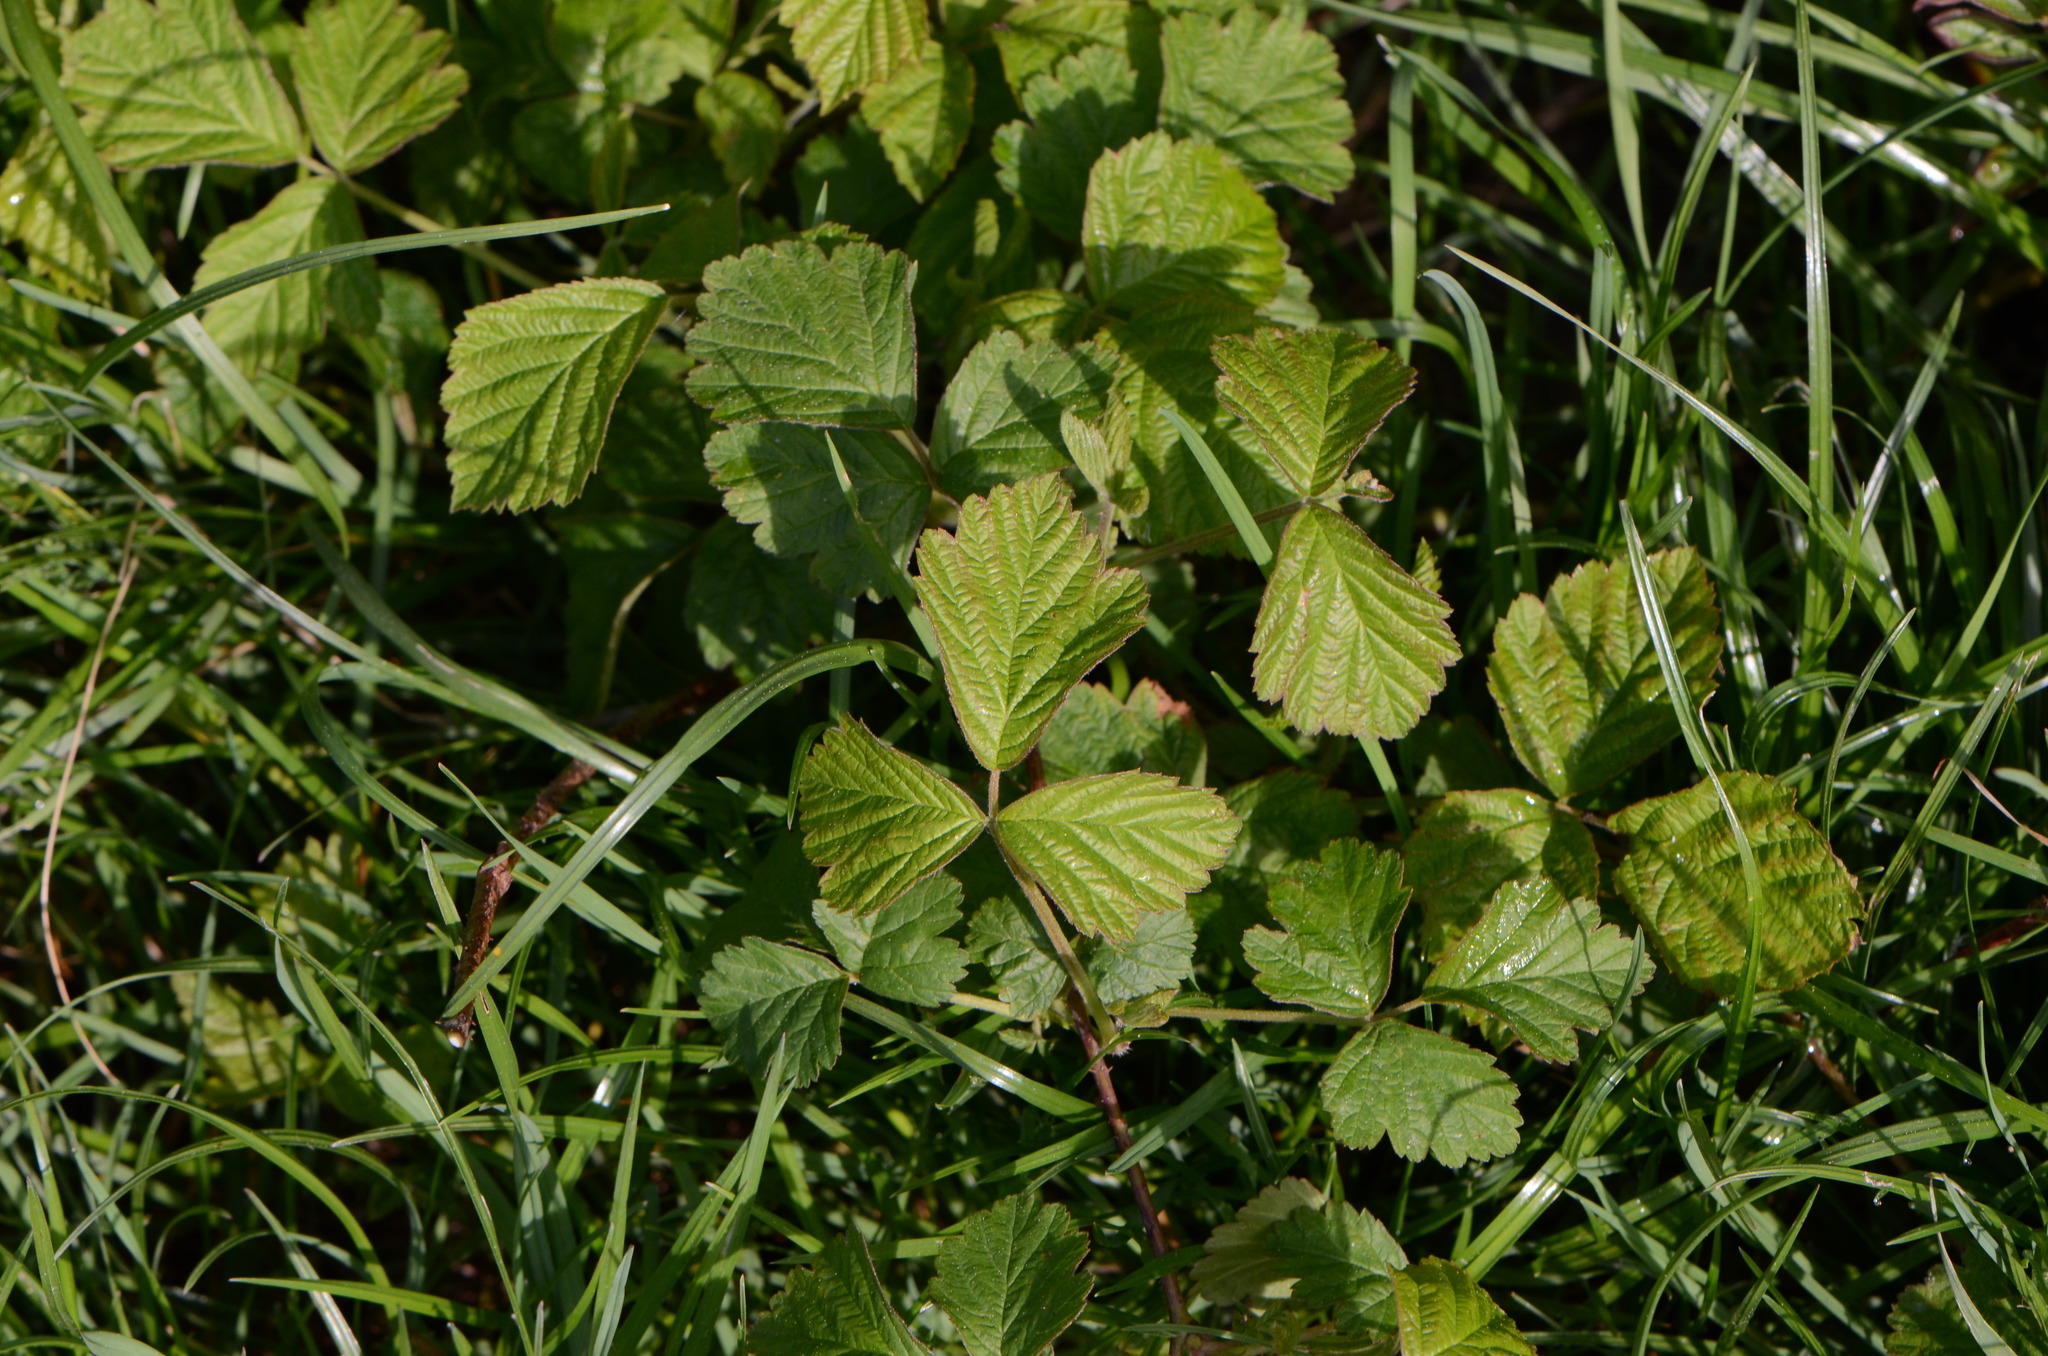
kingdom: Plantae
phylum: Tracheophyta
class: Magnoliopsida
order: Rosales
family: Rosaceae
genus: Rubus
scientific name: Rubus caesius
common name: Dewberry
